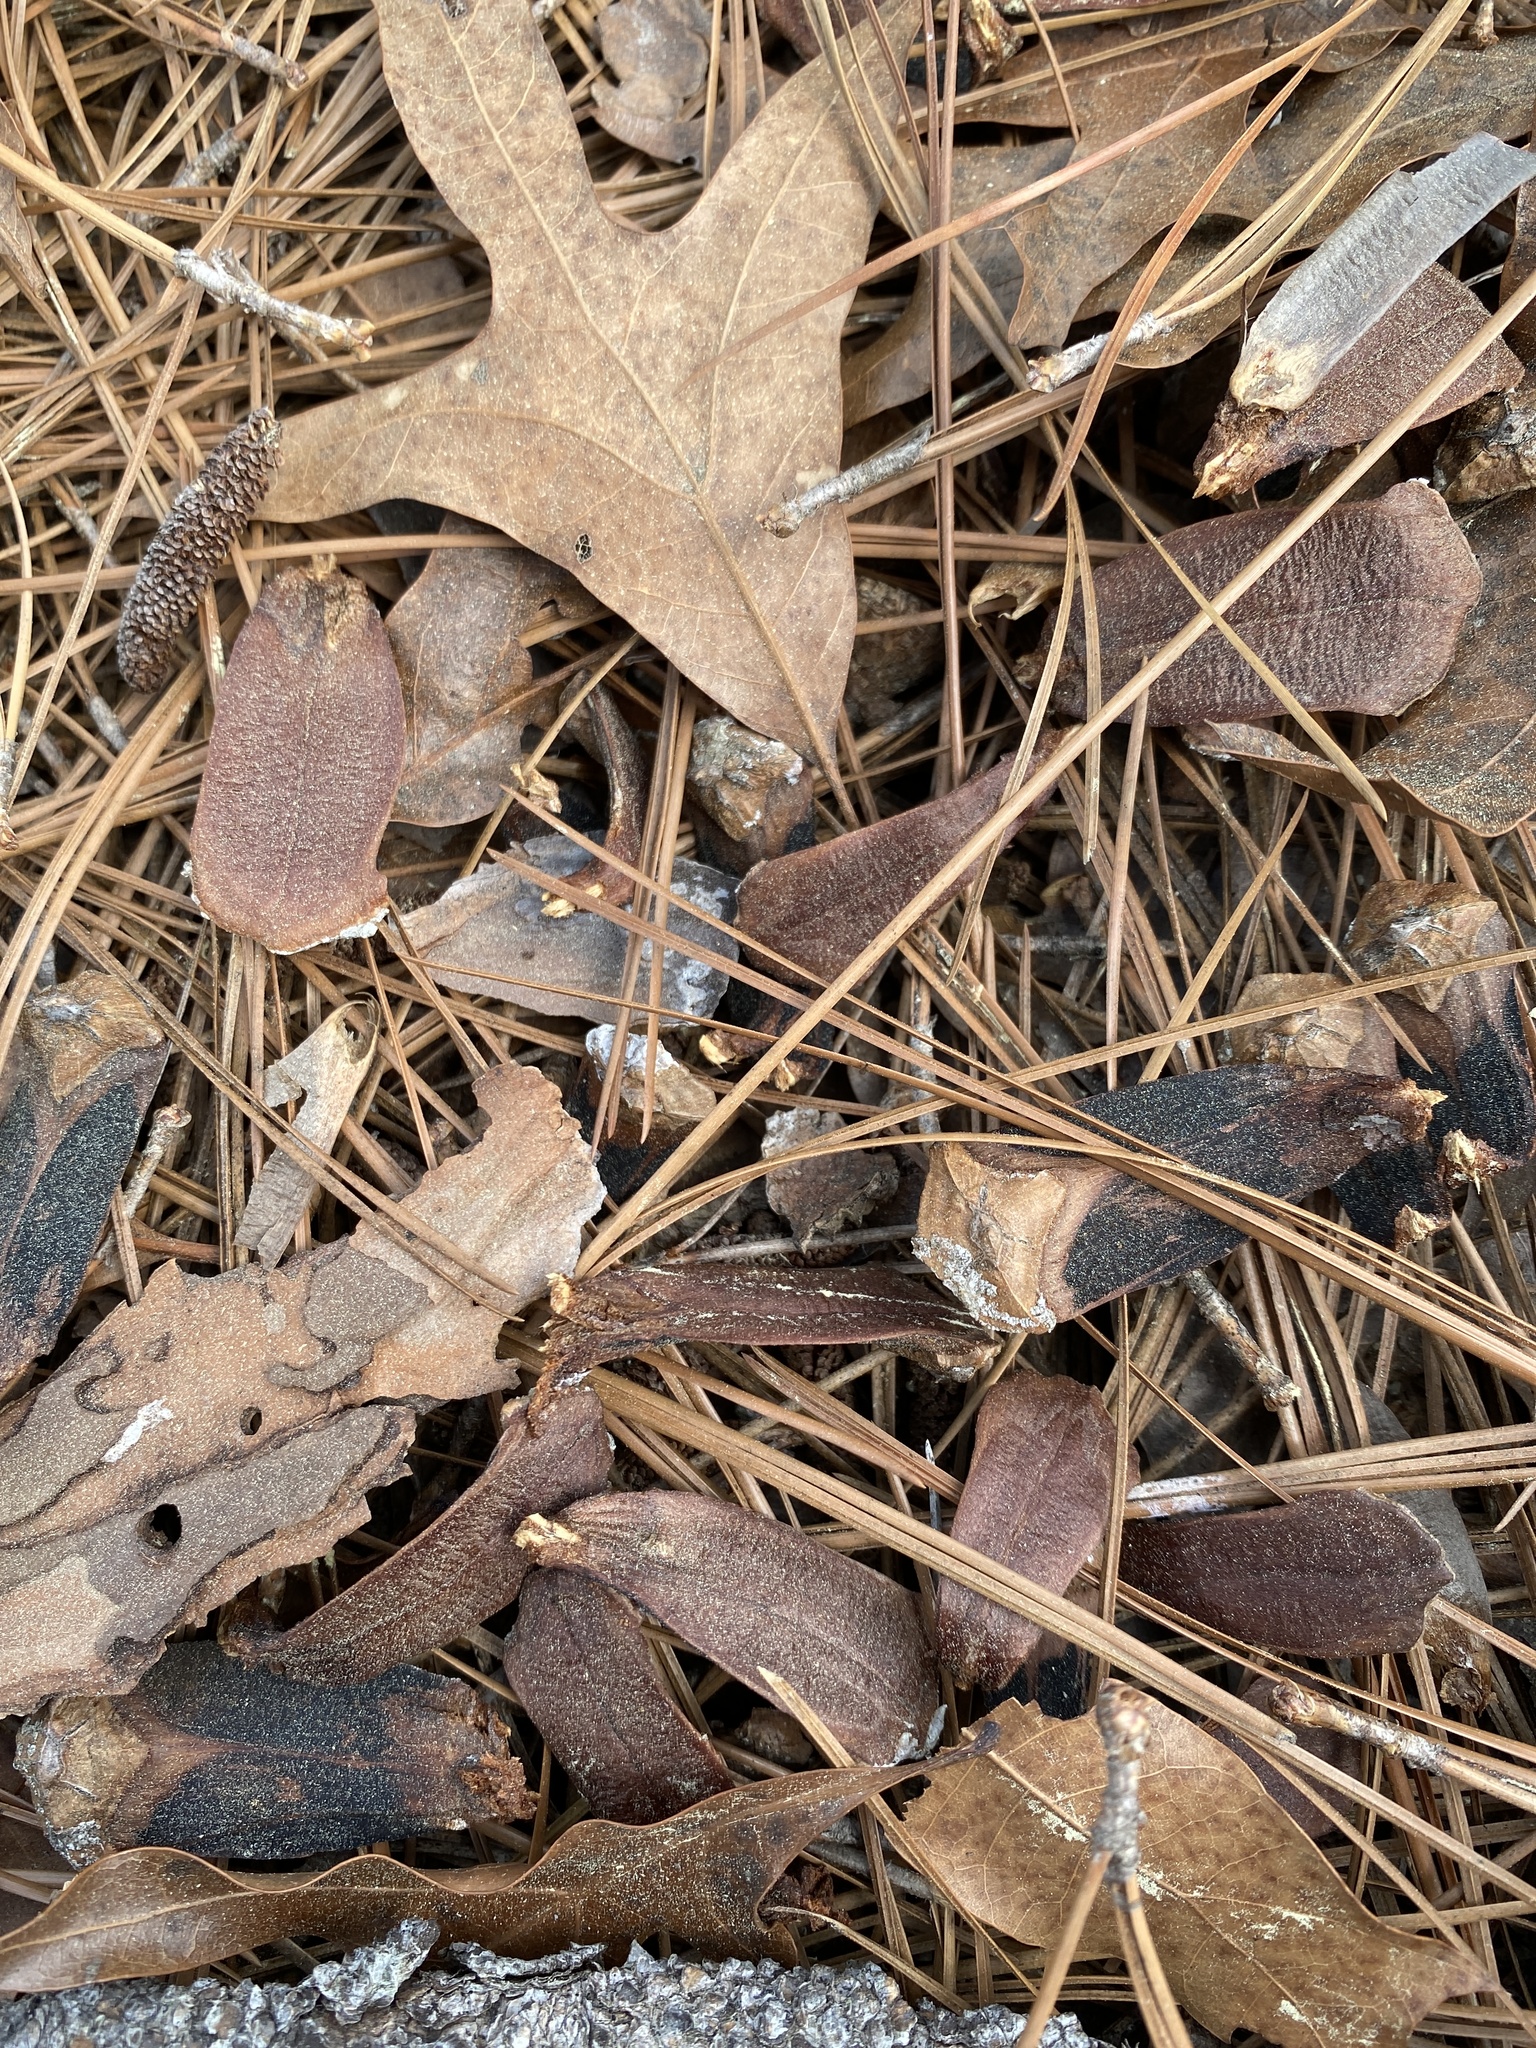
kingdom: Animalia
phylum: Chordata
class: Mammalia
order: Rodentia
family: Sciuridae
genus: Sciurus
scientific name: Sciurus niger
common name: Fox squirrel
